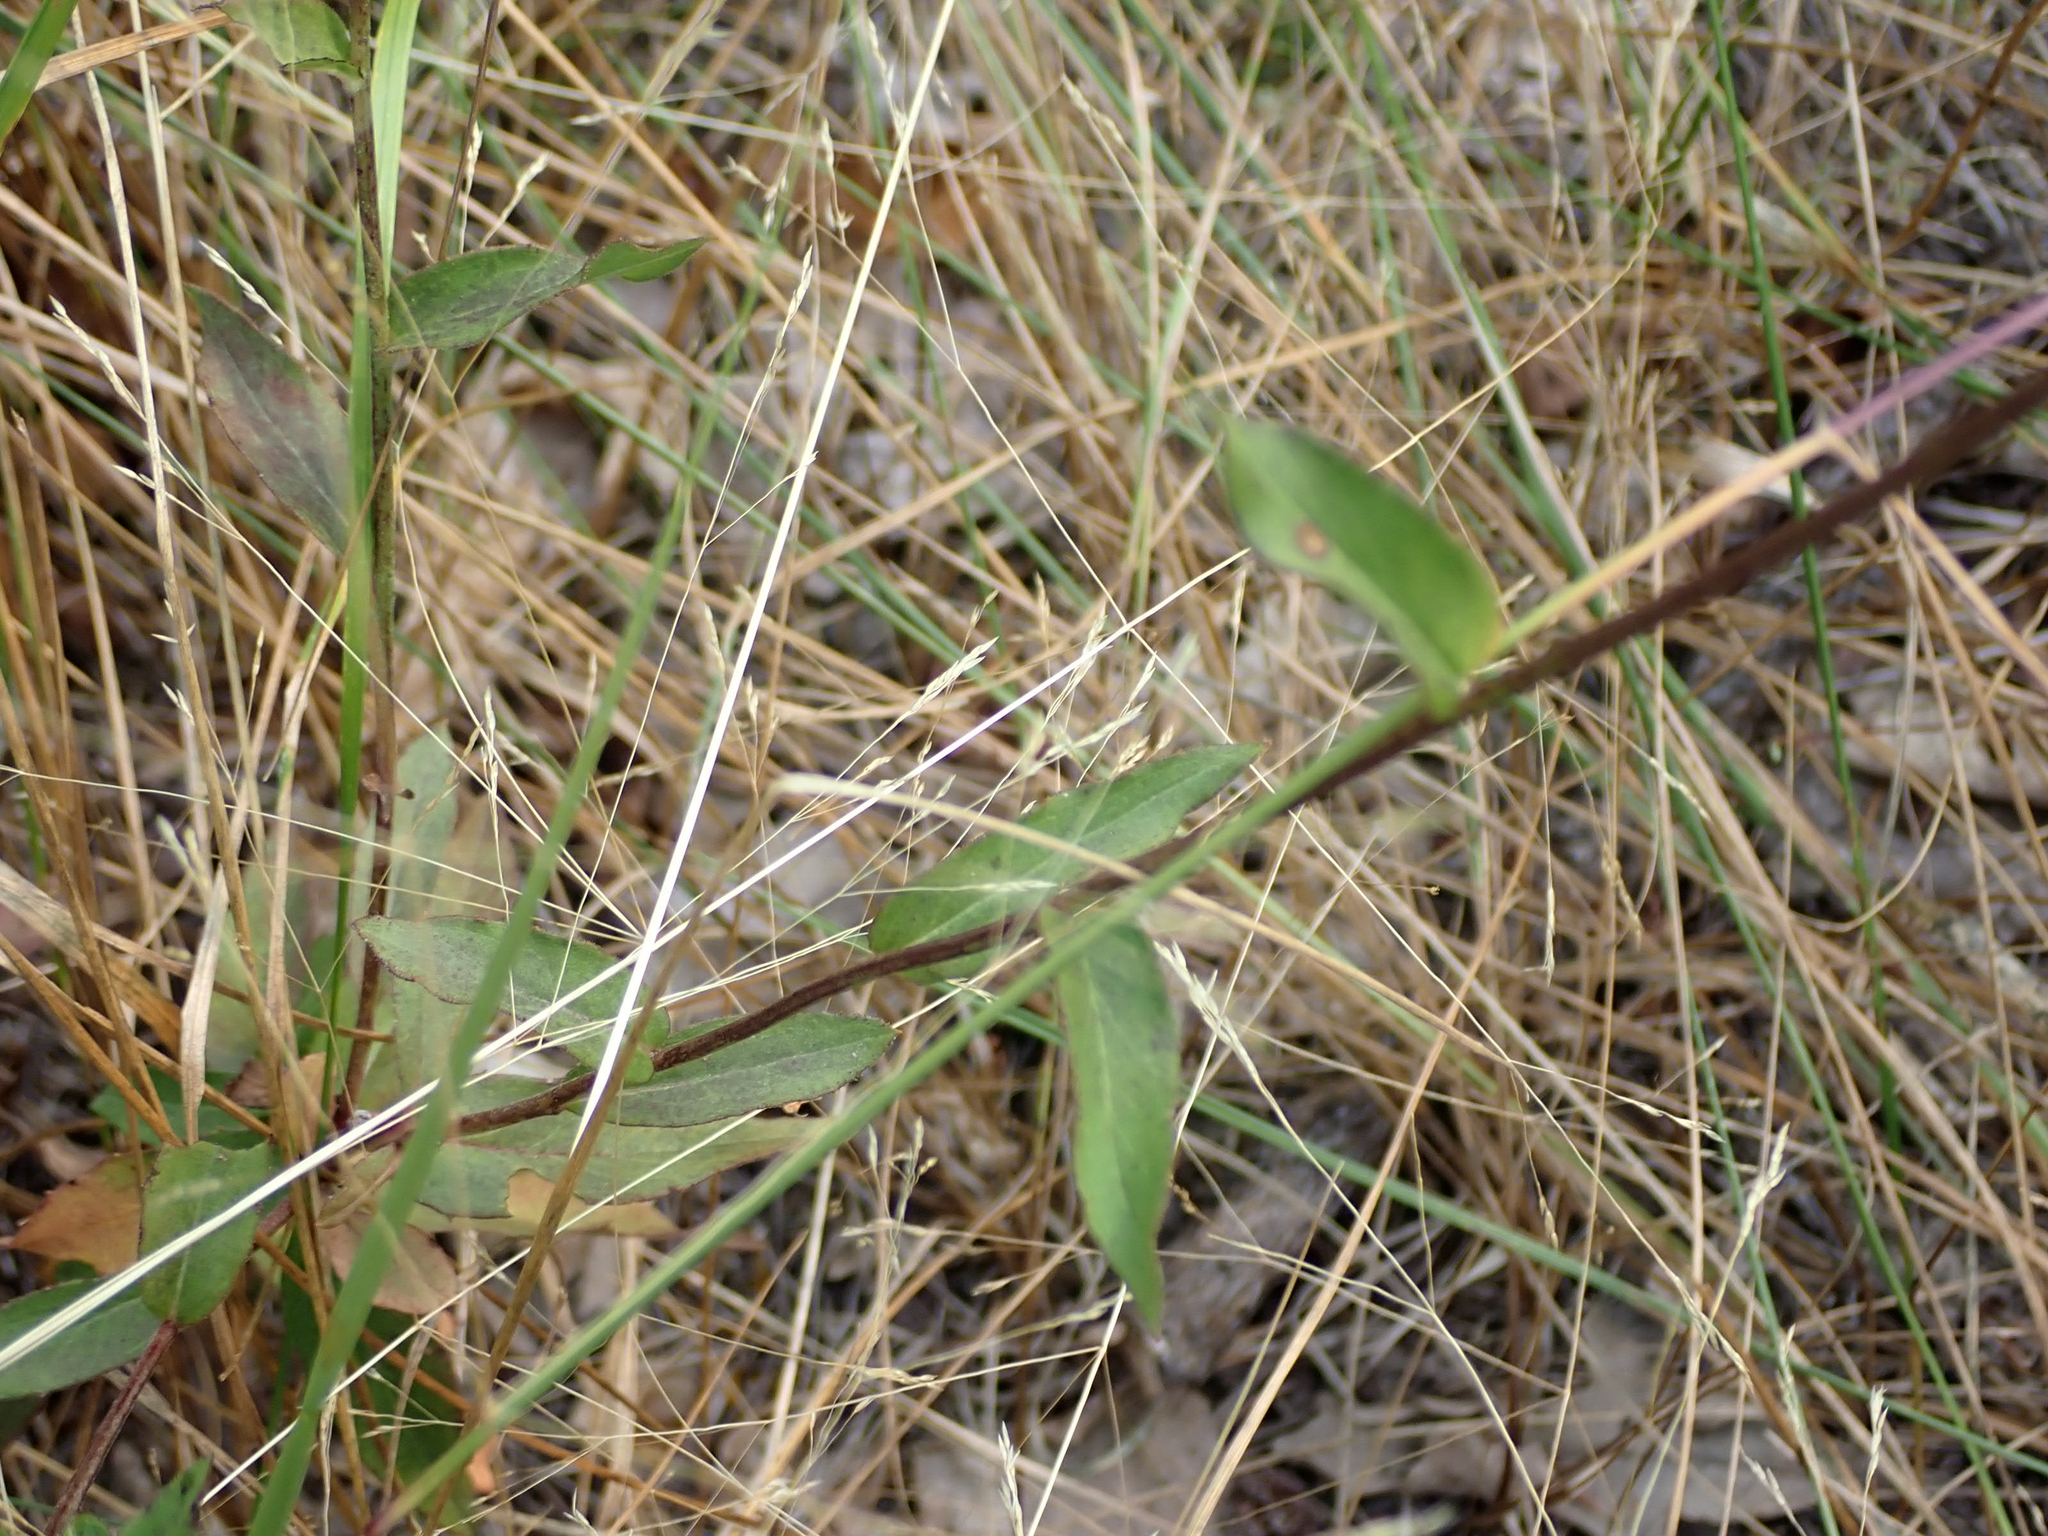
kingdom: Plantae
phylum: Tracheophyta
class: Magnoliopsida
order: Asterales
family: Asteraceae
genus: Hieracium
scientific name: Hieracium umbellatum
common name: Northern hawkweed
